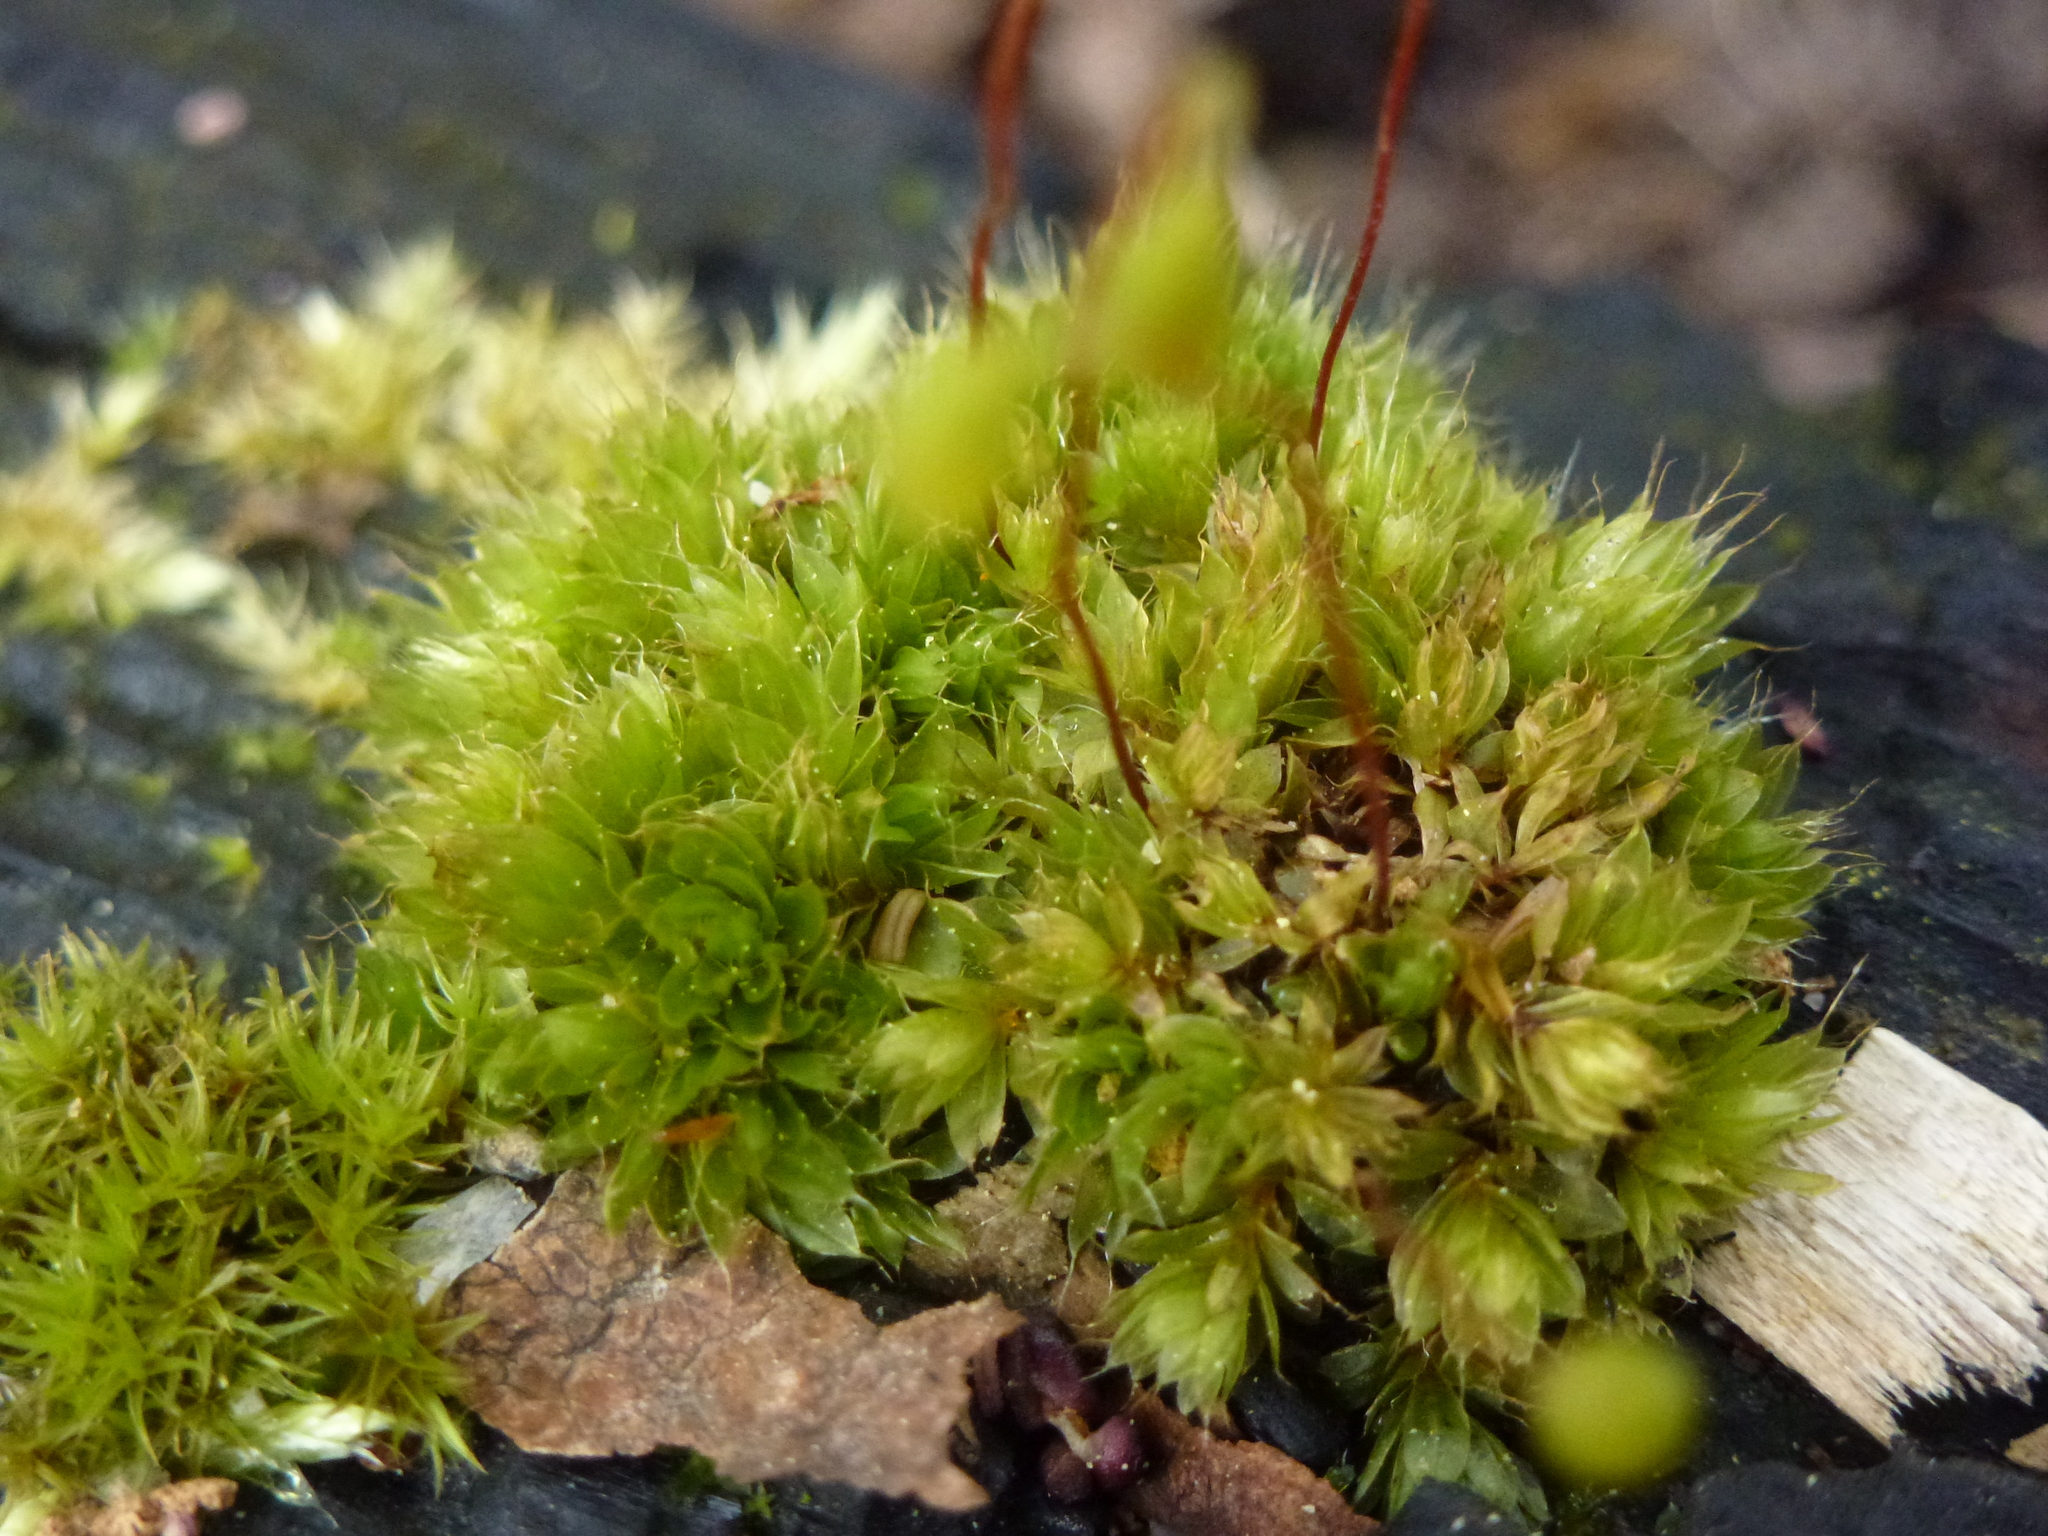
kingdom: Plantae
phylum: Bryophyta
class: Bryopsida
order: Bryales
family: Bryaceae
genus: Rosulabryum
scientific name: Rosulabryum capillare
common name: Capillary thread-moss
